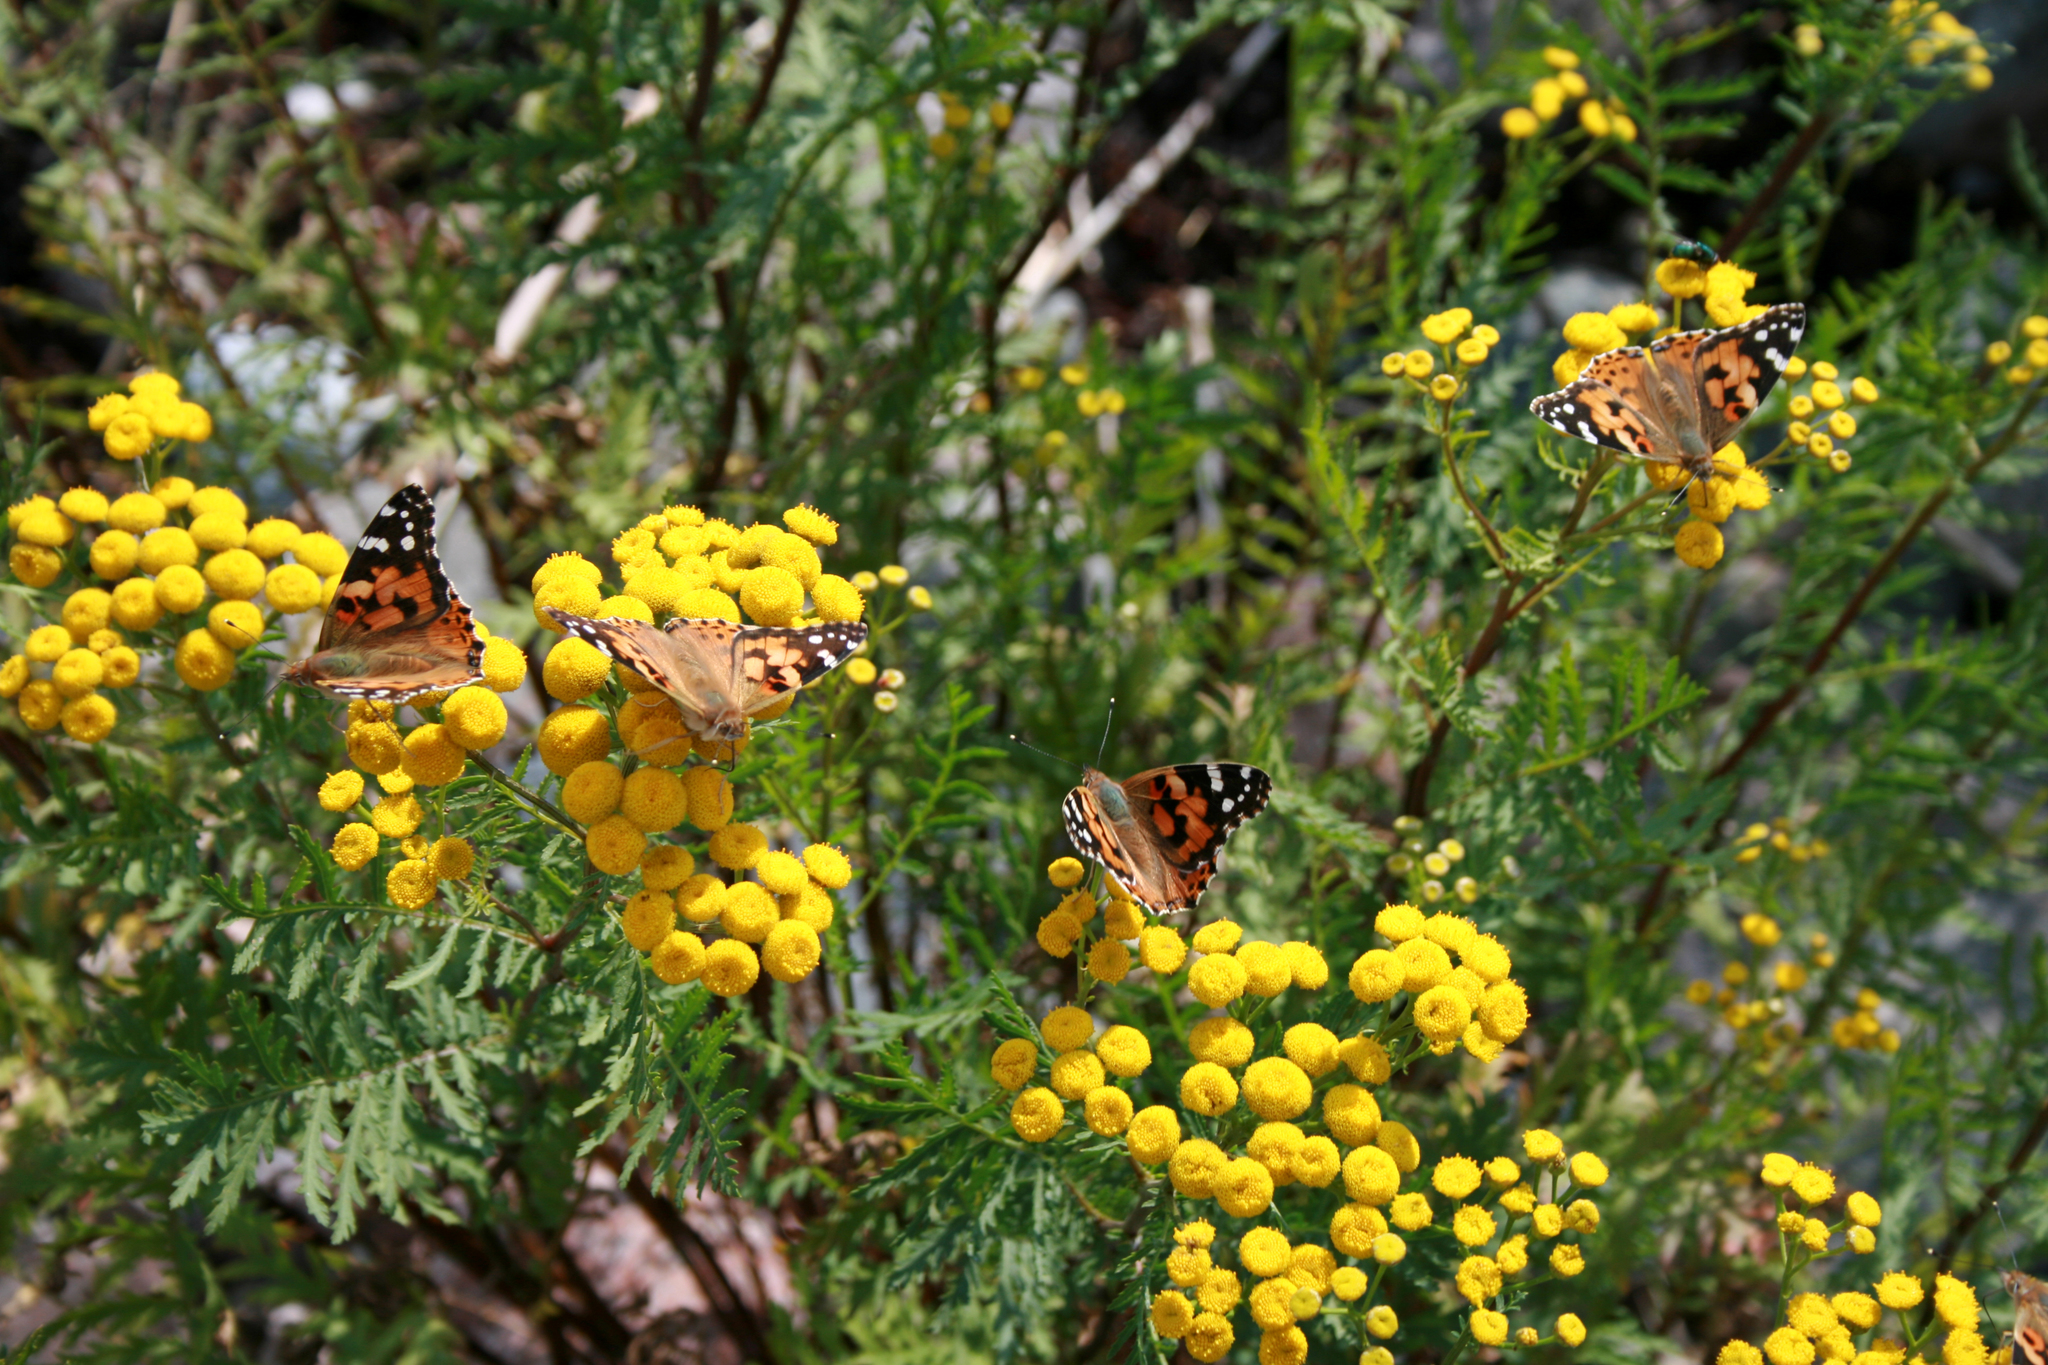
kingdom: Animalia
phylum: Arthropoda
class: Insecta
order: Lepidoptera
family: Nymphalidae
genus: Vanessa
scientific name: Vanessa cardui
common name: Painted lady
